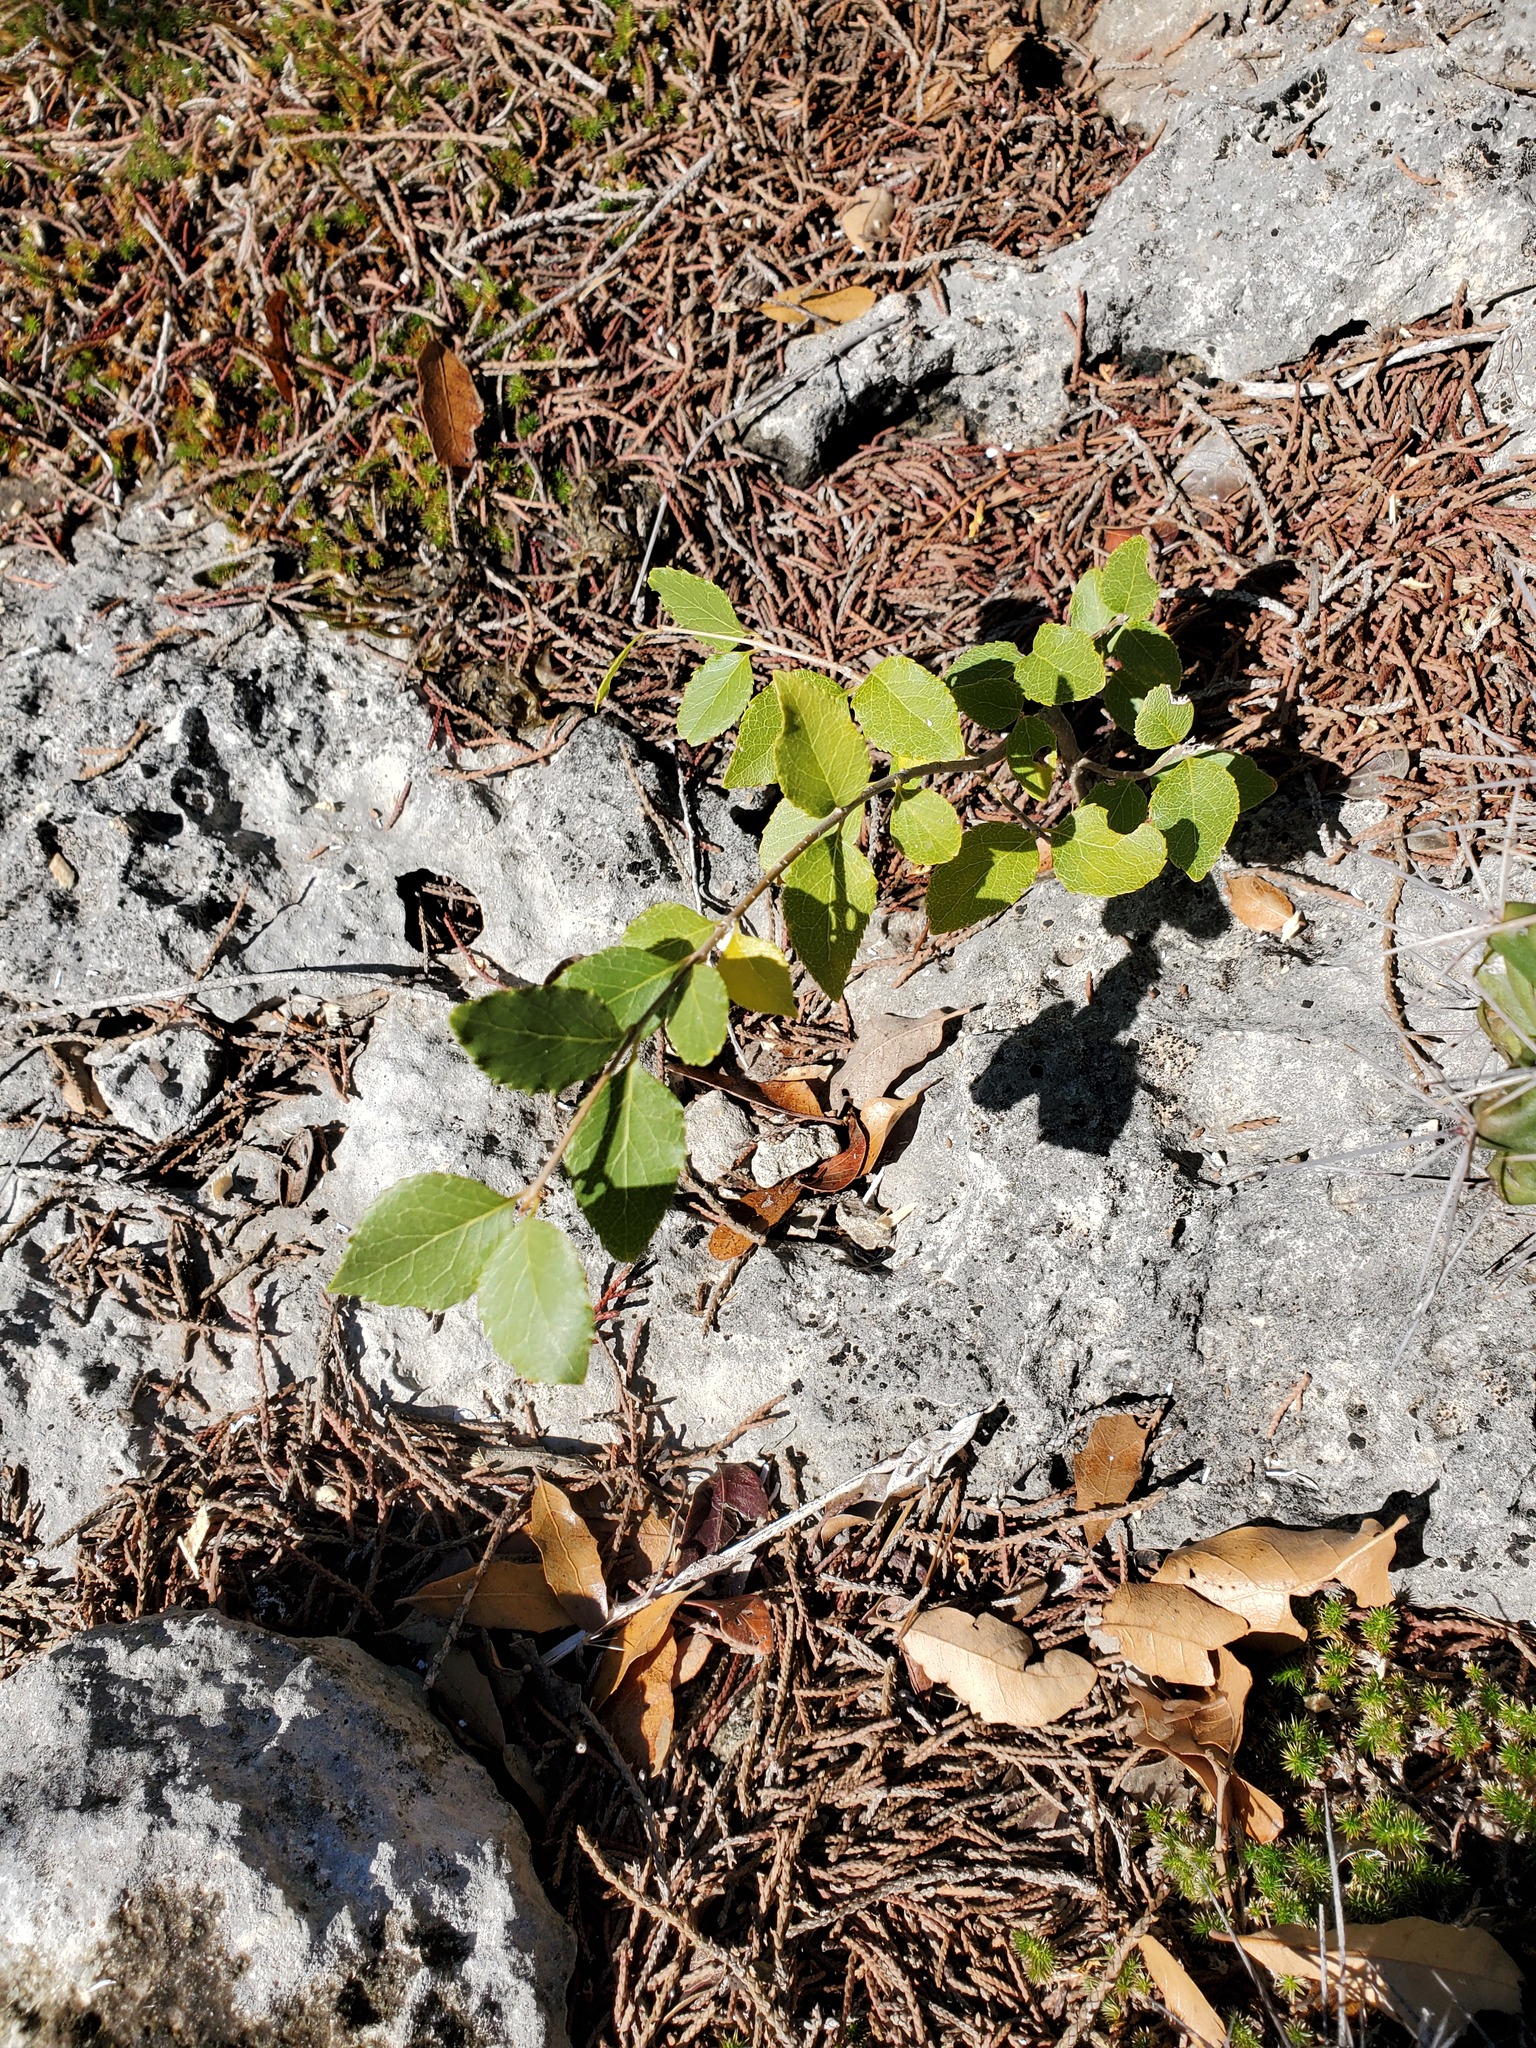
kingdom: Plantae
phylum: Tracheophyta
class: Magnoliopsida
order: Lamiales
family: Oleaceae
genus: Forestiera
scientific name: Forestiera reticulata
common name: Netleaf swamp-privet
